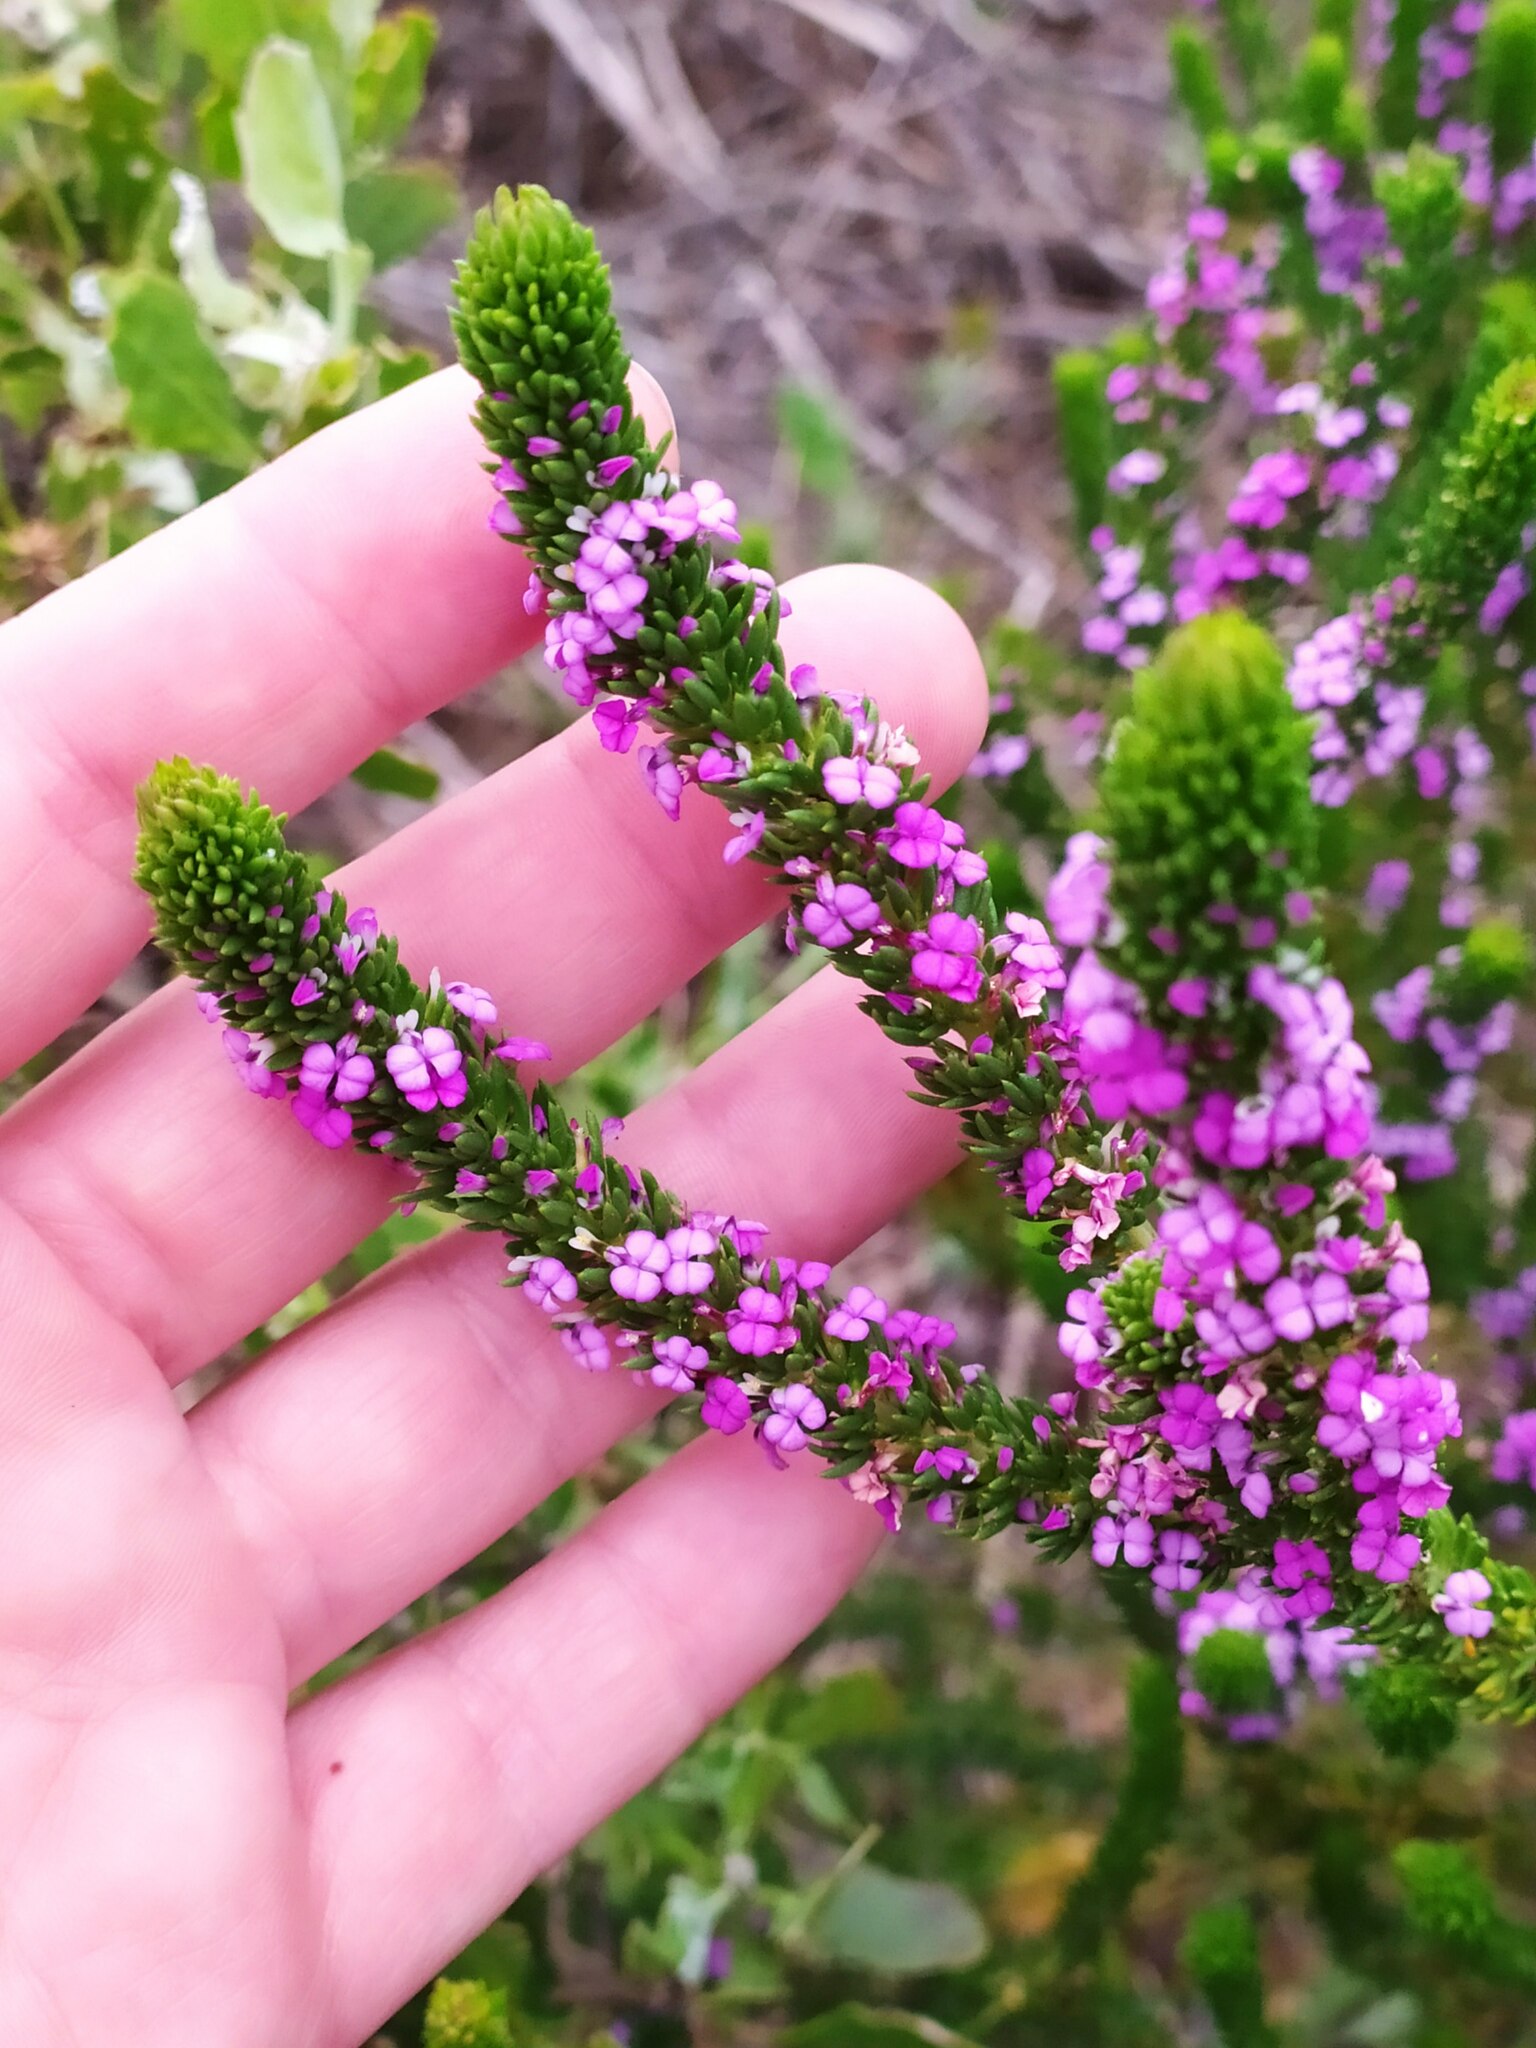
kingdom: Plantae
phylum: Tracheophyta
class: Magnoliopsida
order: Fabales
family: Polygalaceae
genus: Muraltia
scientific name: Muraltia mitior
